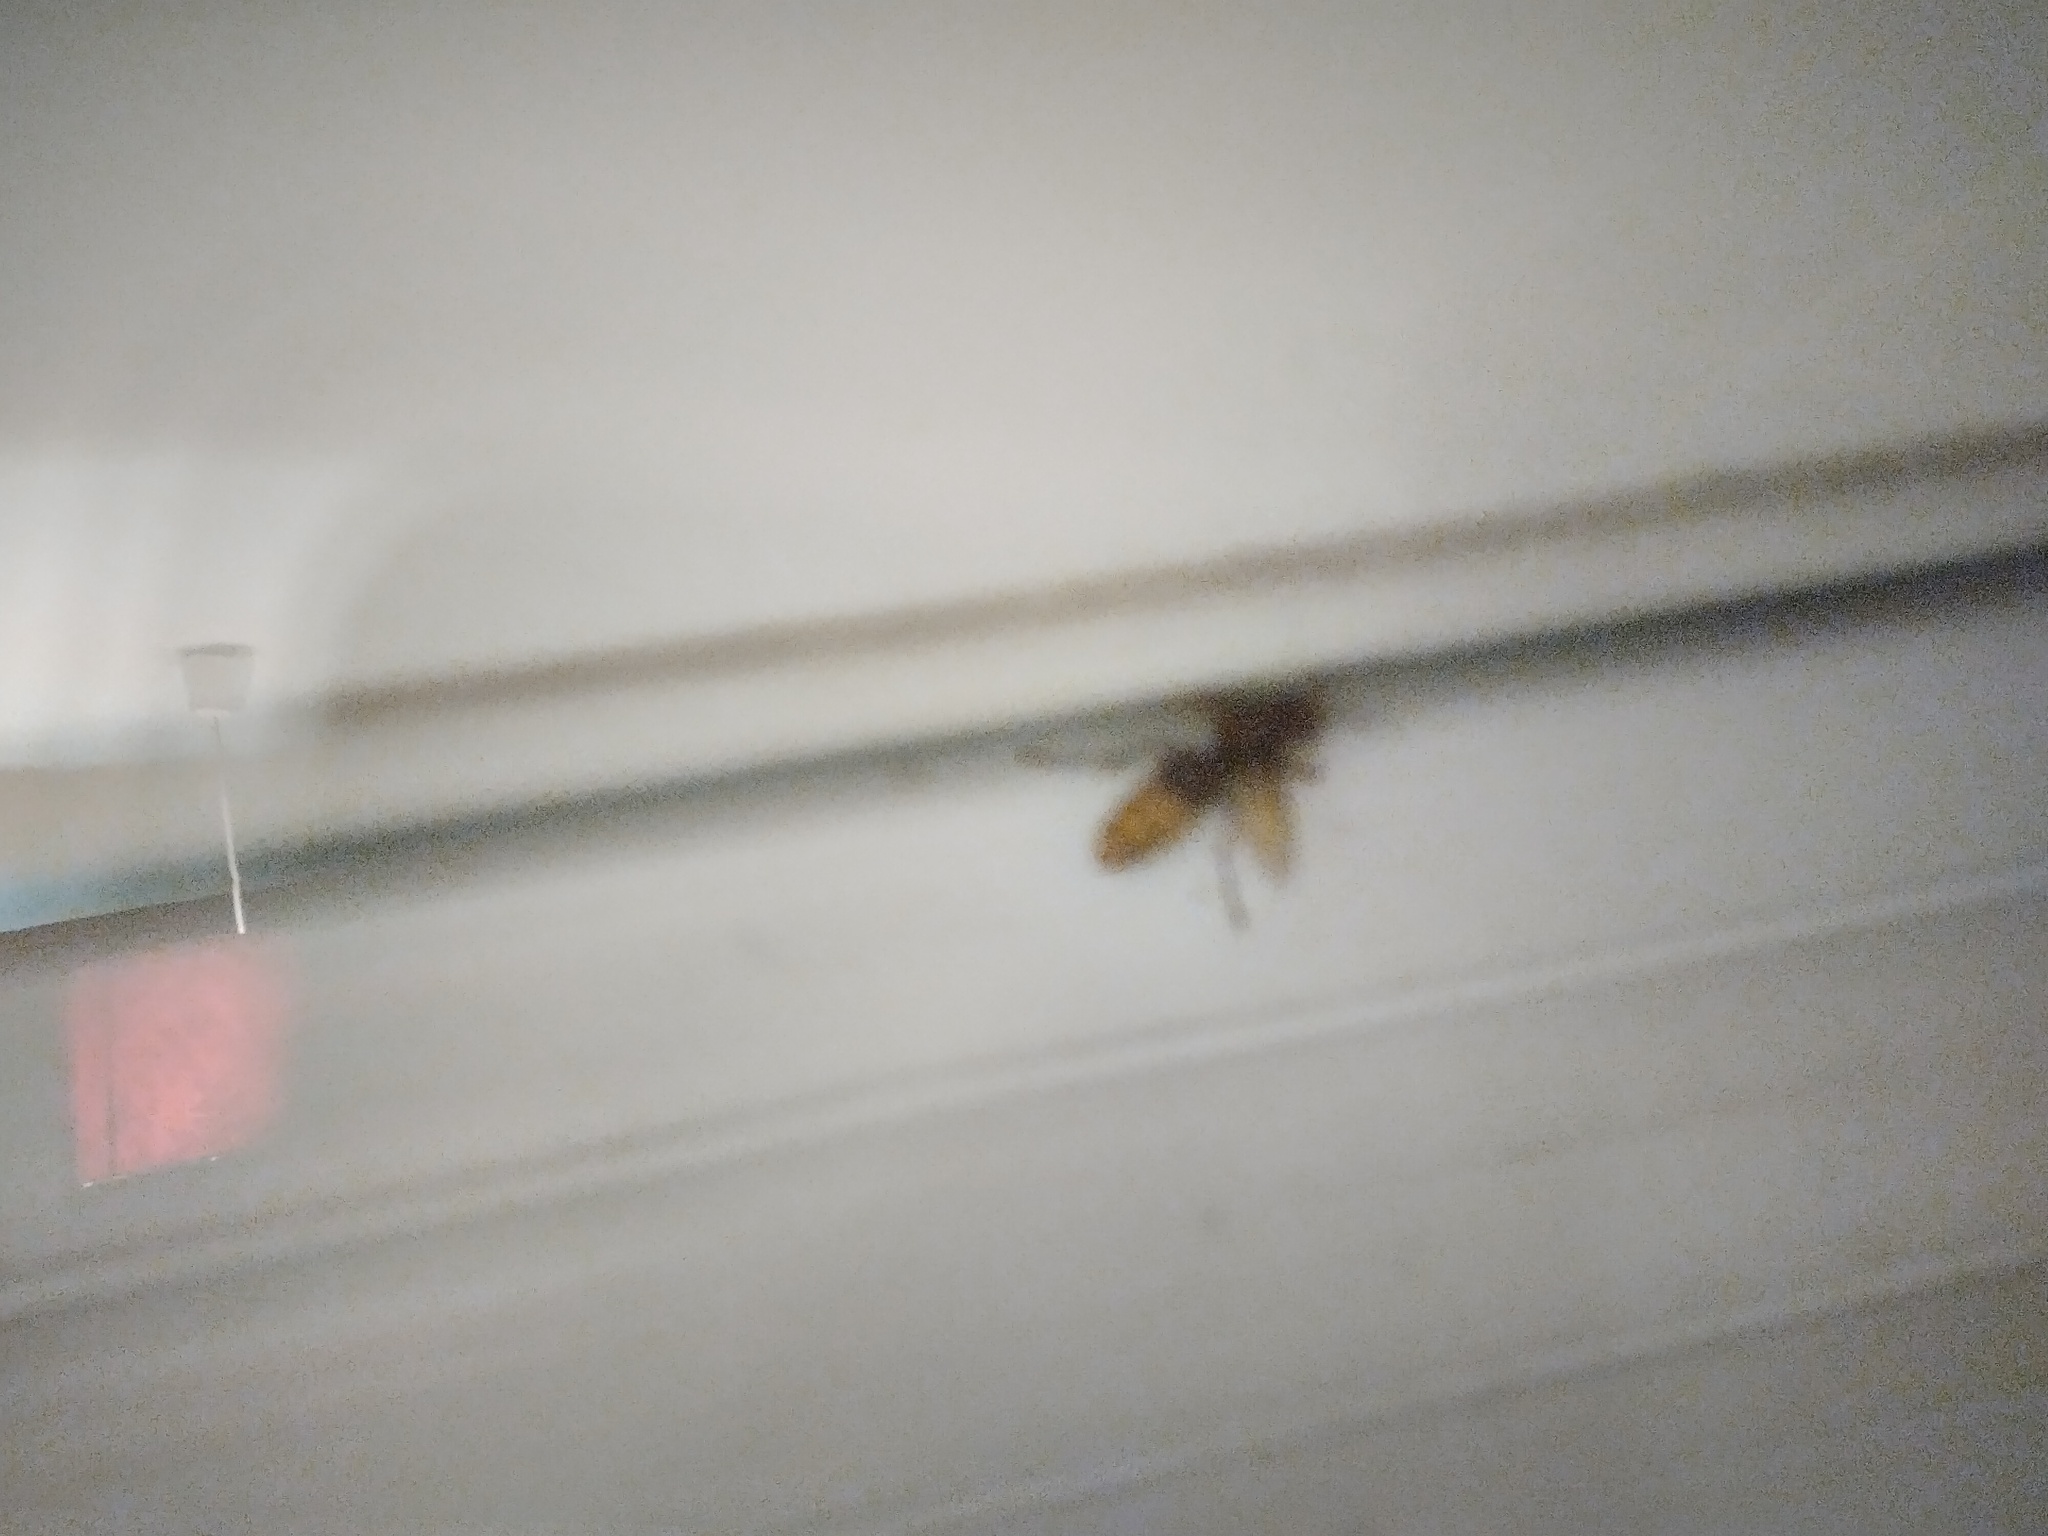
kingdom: Animalia
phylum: Arthropoda
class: Insecta
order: Hymenoptera
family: Vespidae
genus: Vespa
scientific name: Vespa crabro
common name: Hornet
